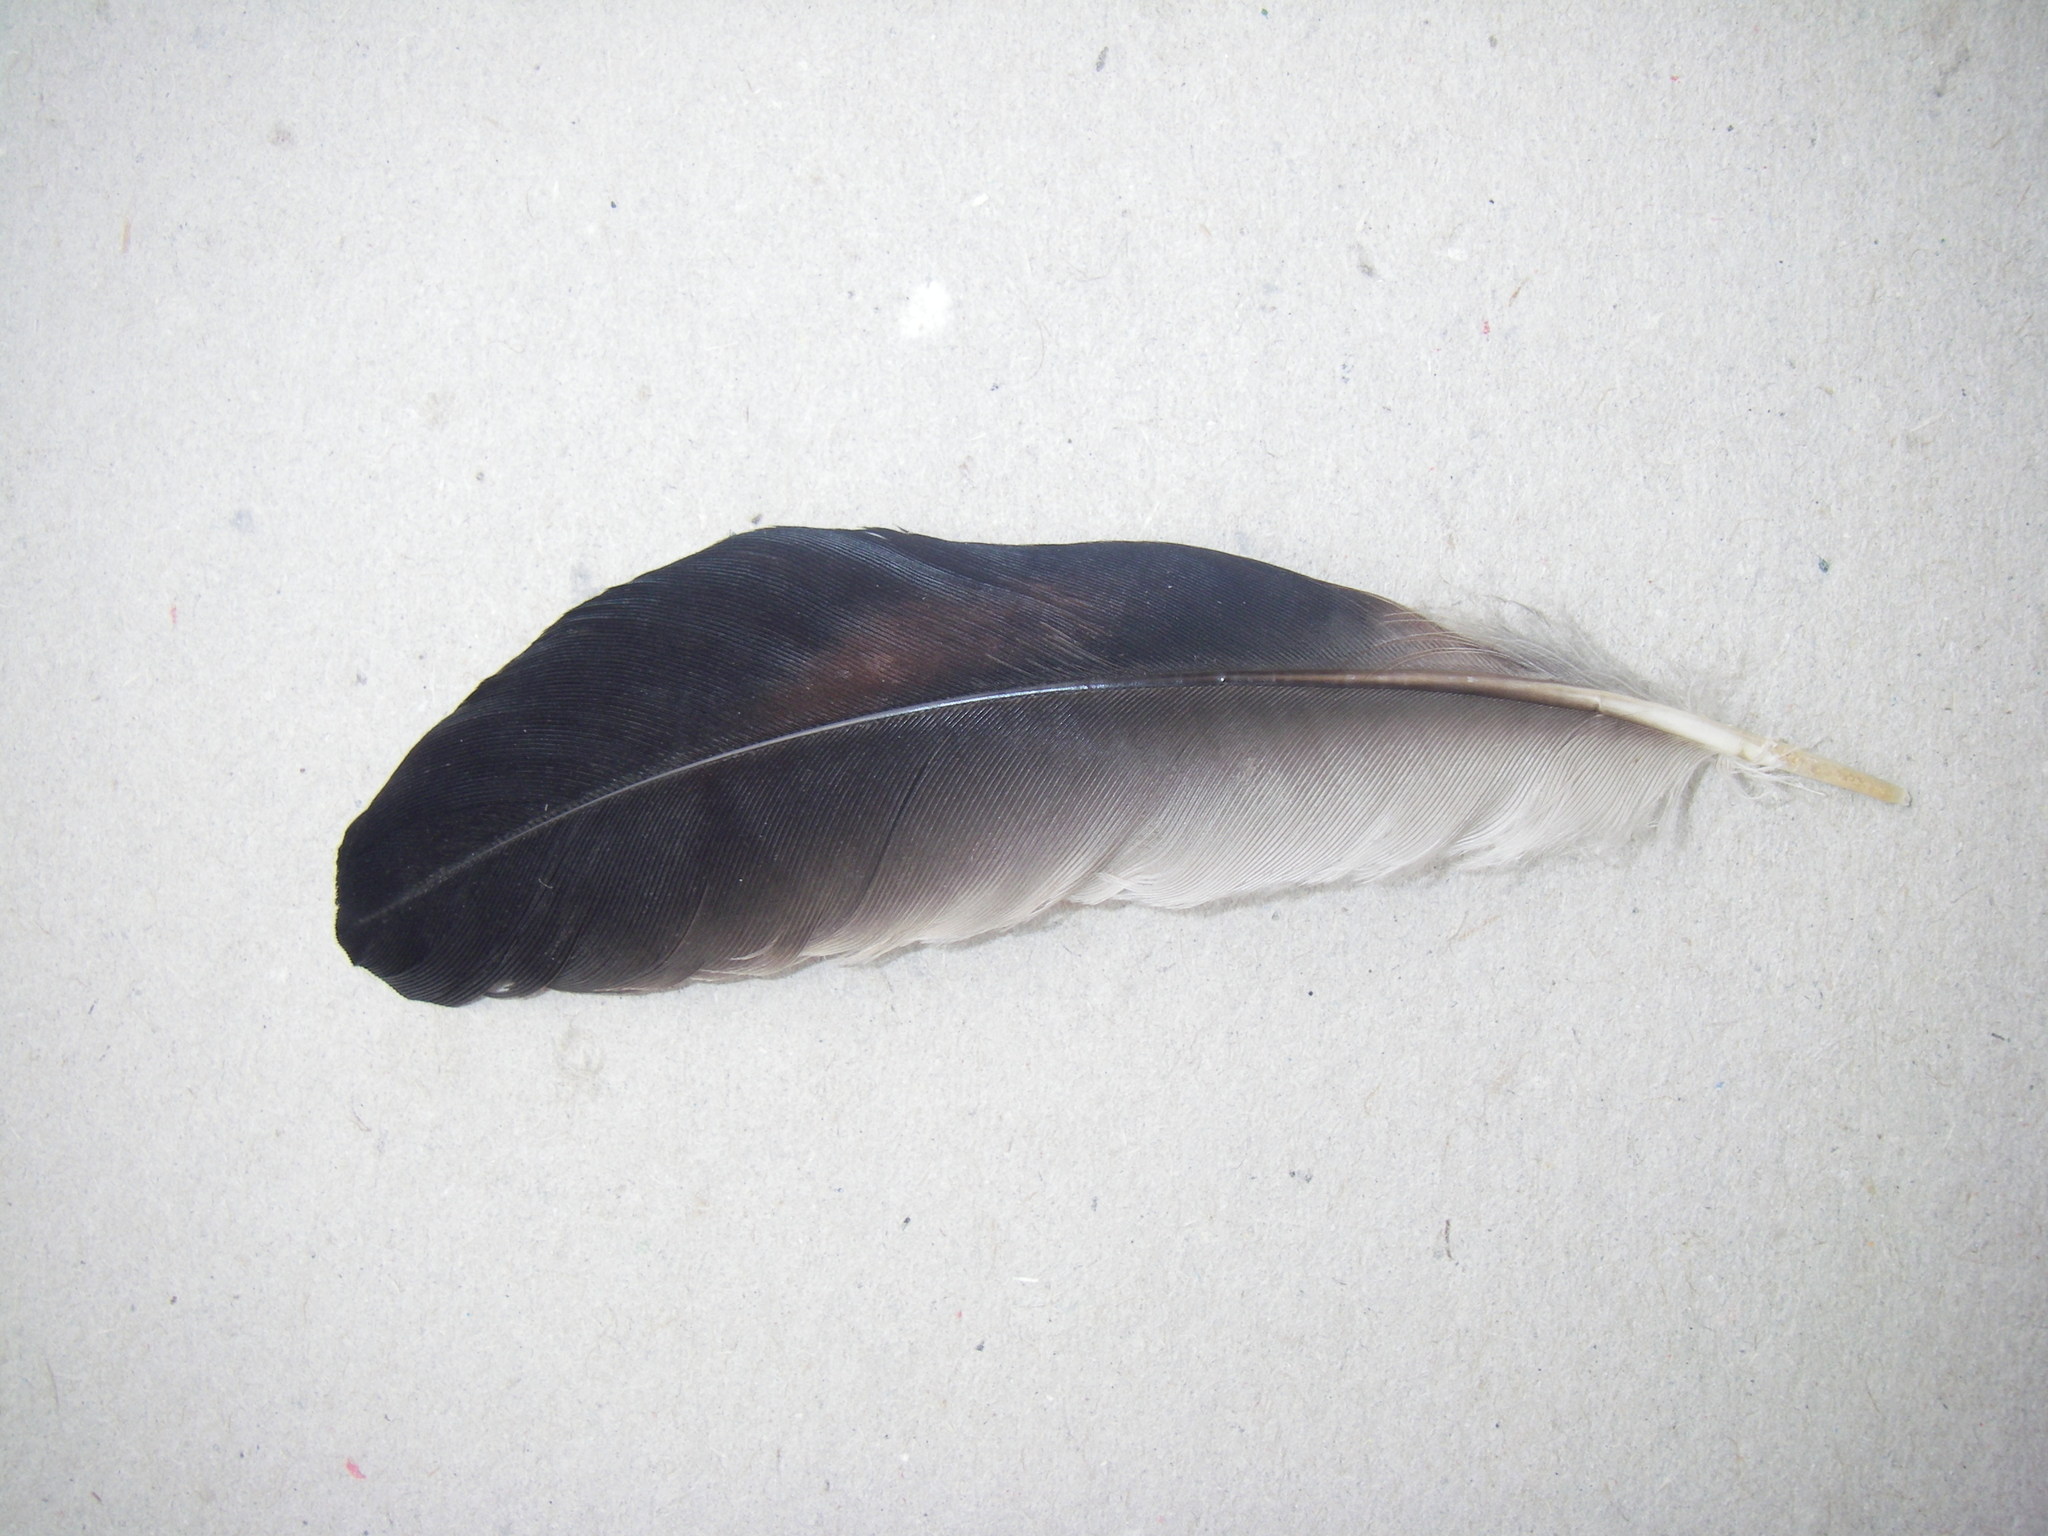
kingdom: Animalia
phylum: Chordata
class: Aves
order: Passeriformes
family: Corvidae
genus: Garrulus
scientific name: Garrulus glandarius
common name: Eurasian jay
